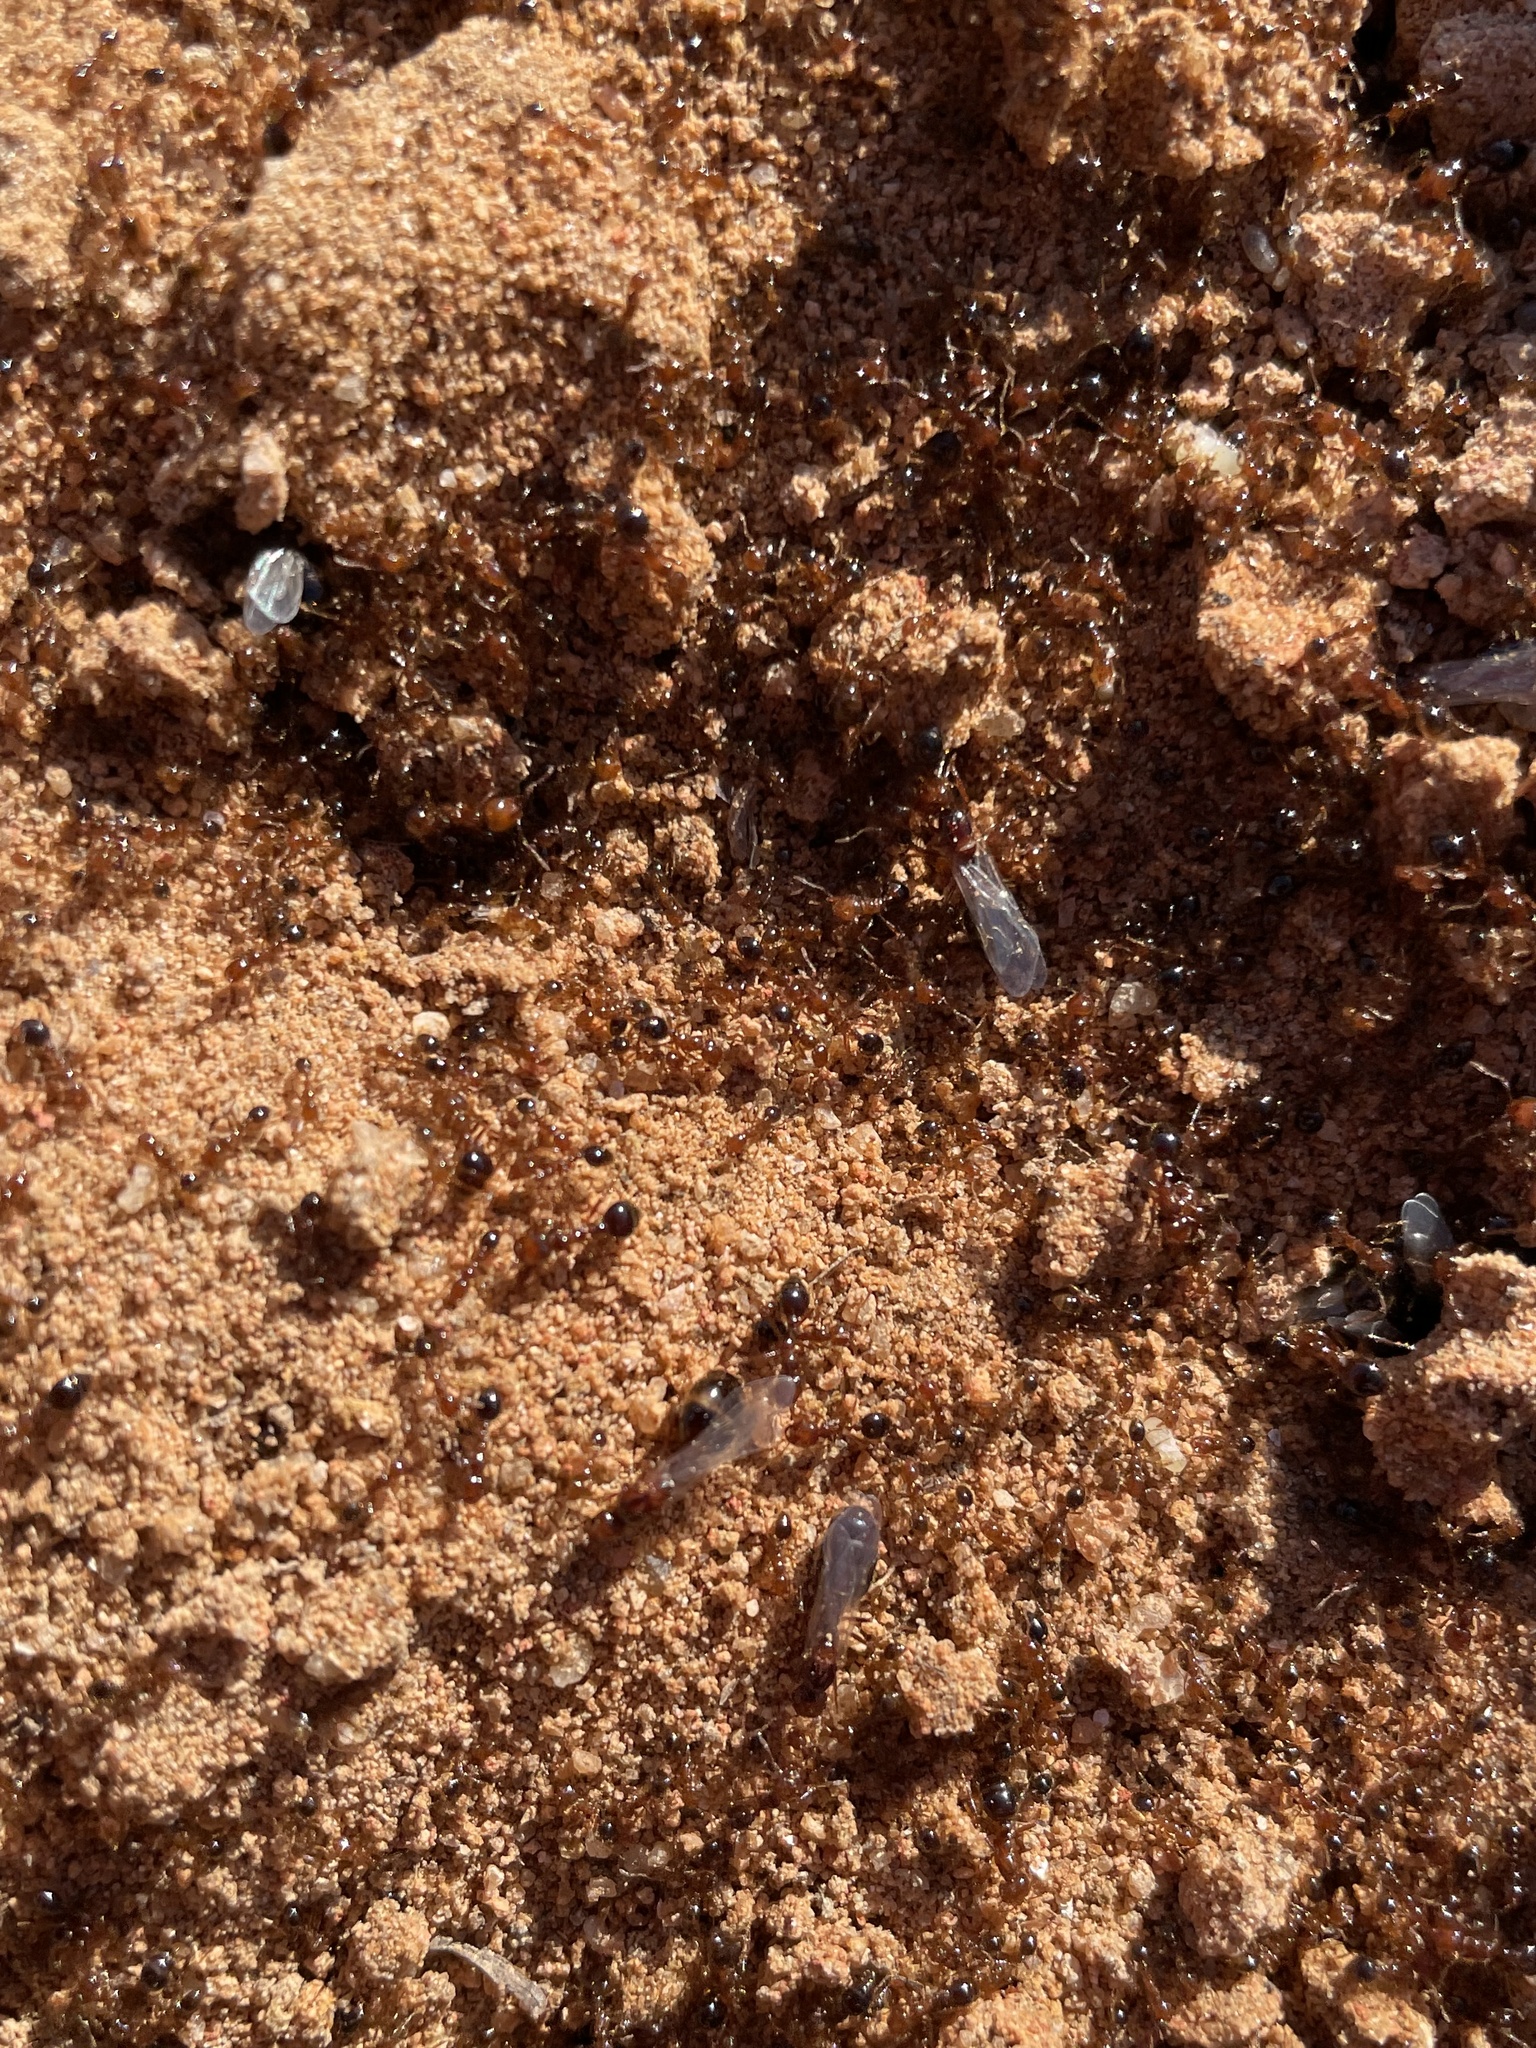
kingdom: Animalia
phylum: Arthropoda
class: Insecta
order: Hymenoptera
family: Formicidae
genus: Solenopsis
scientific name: Solenopsis invicta
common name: Red imported fire ant
